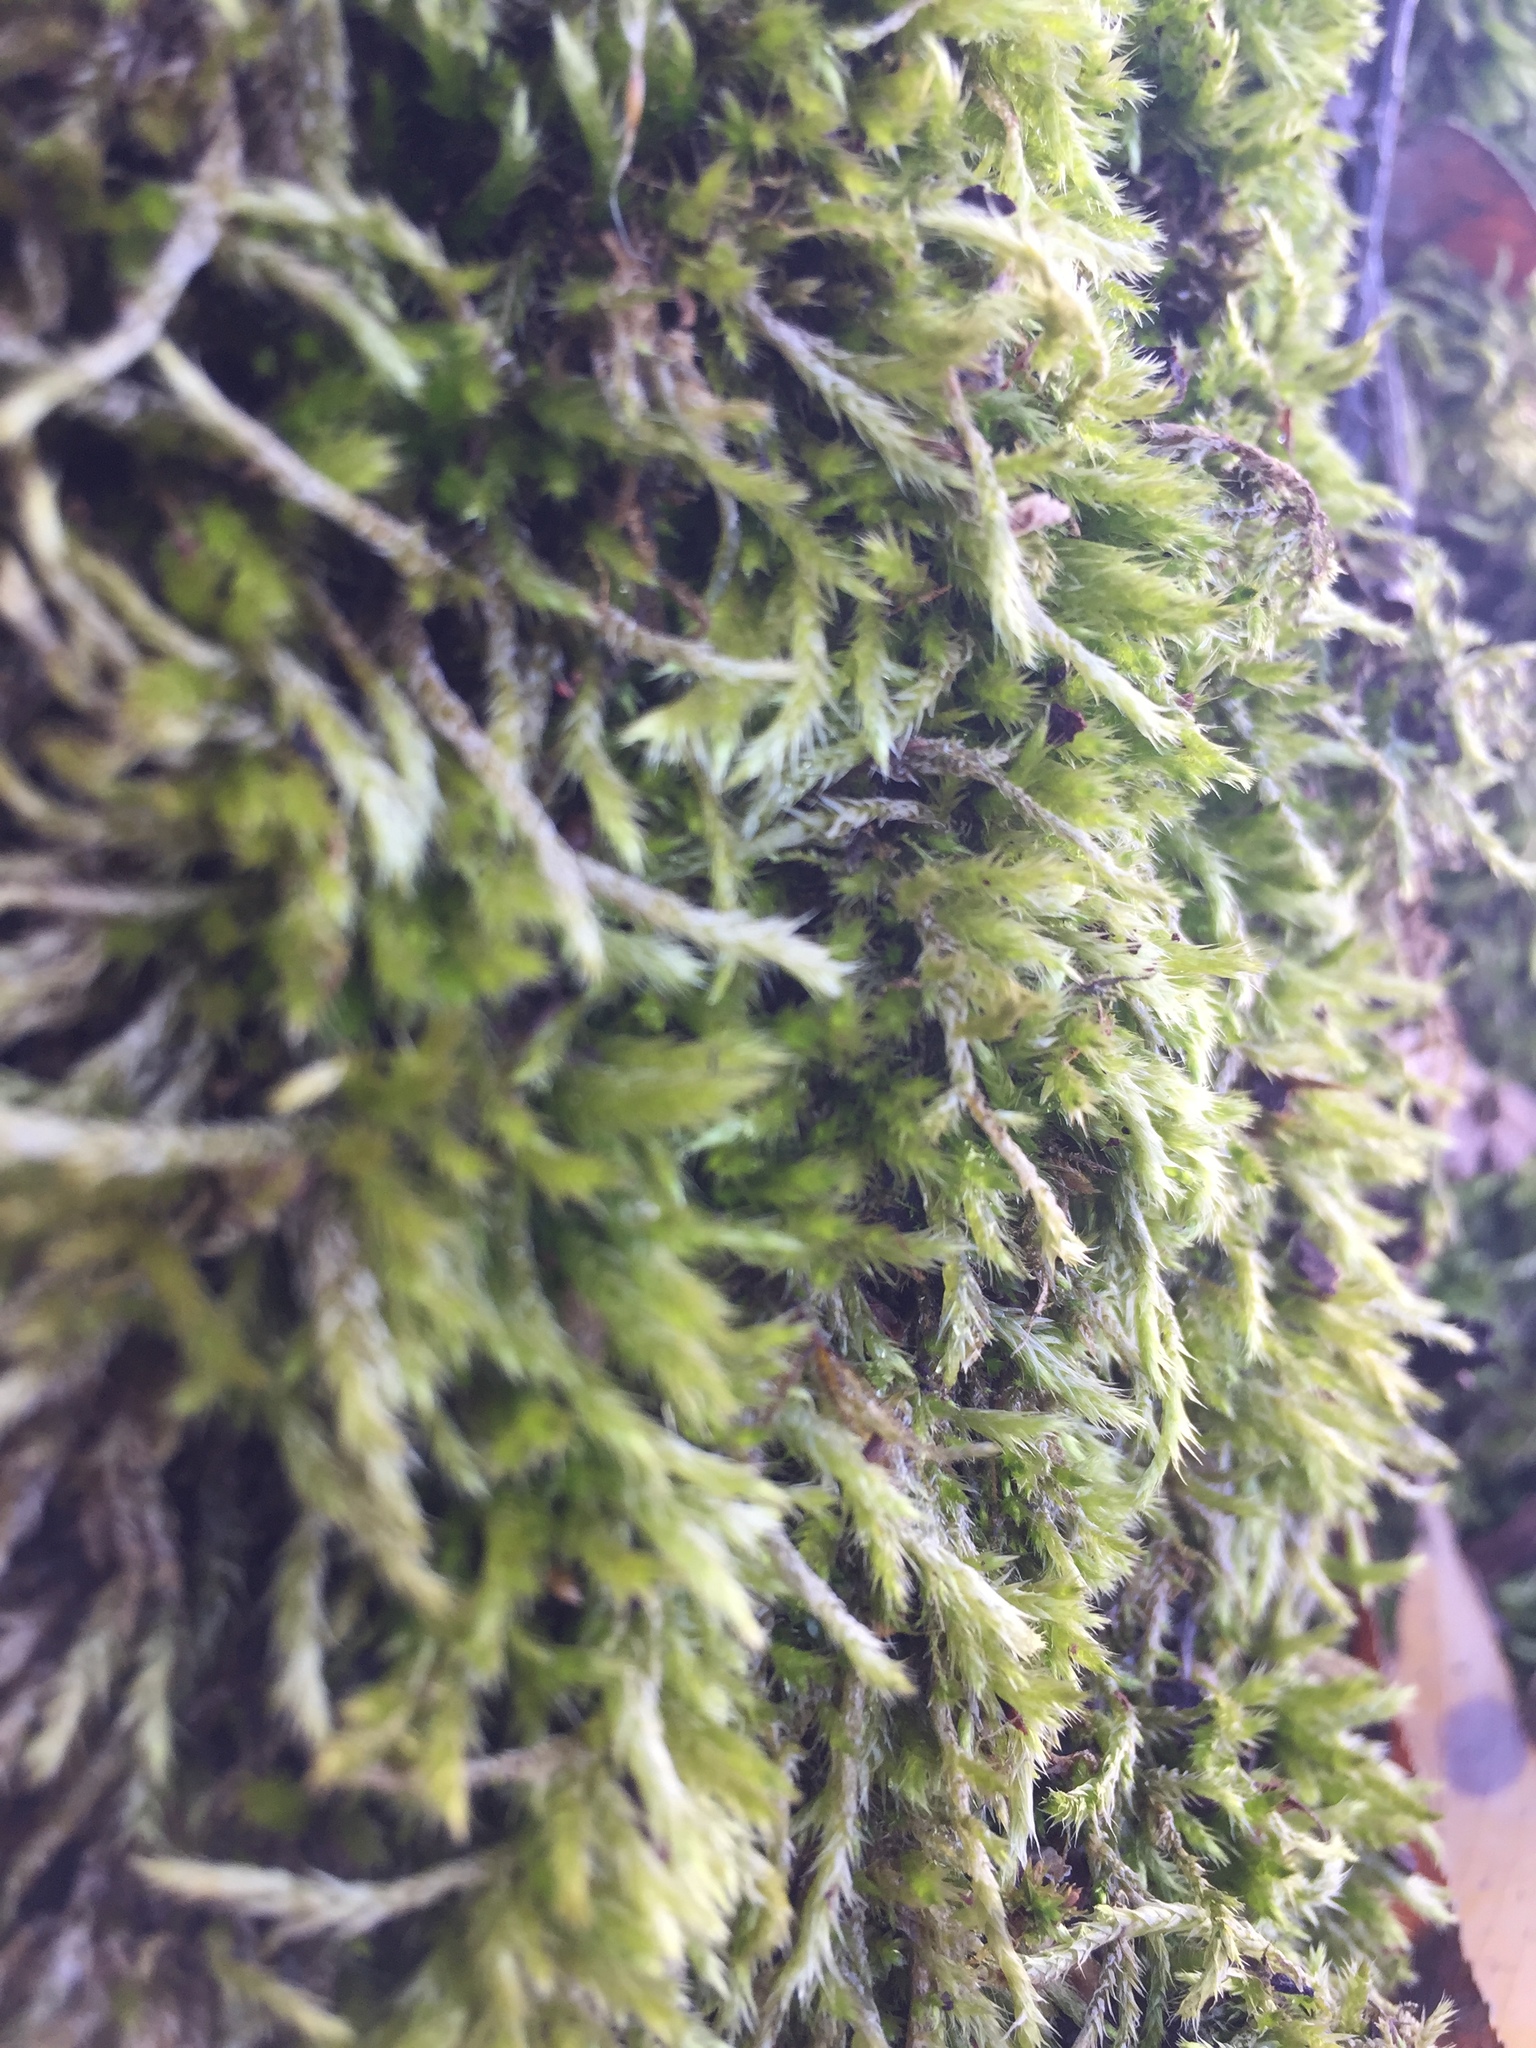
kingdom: Plantae
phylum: Bryophyta
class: Bryopsida
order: Hypnales
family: Brachytheciaceae
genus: Sciuro-hypnum
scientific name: Sciuro-hypnum populeum
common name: Matted feather-moss
